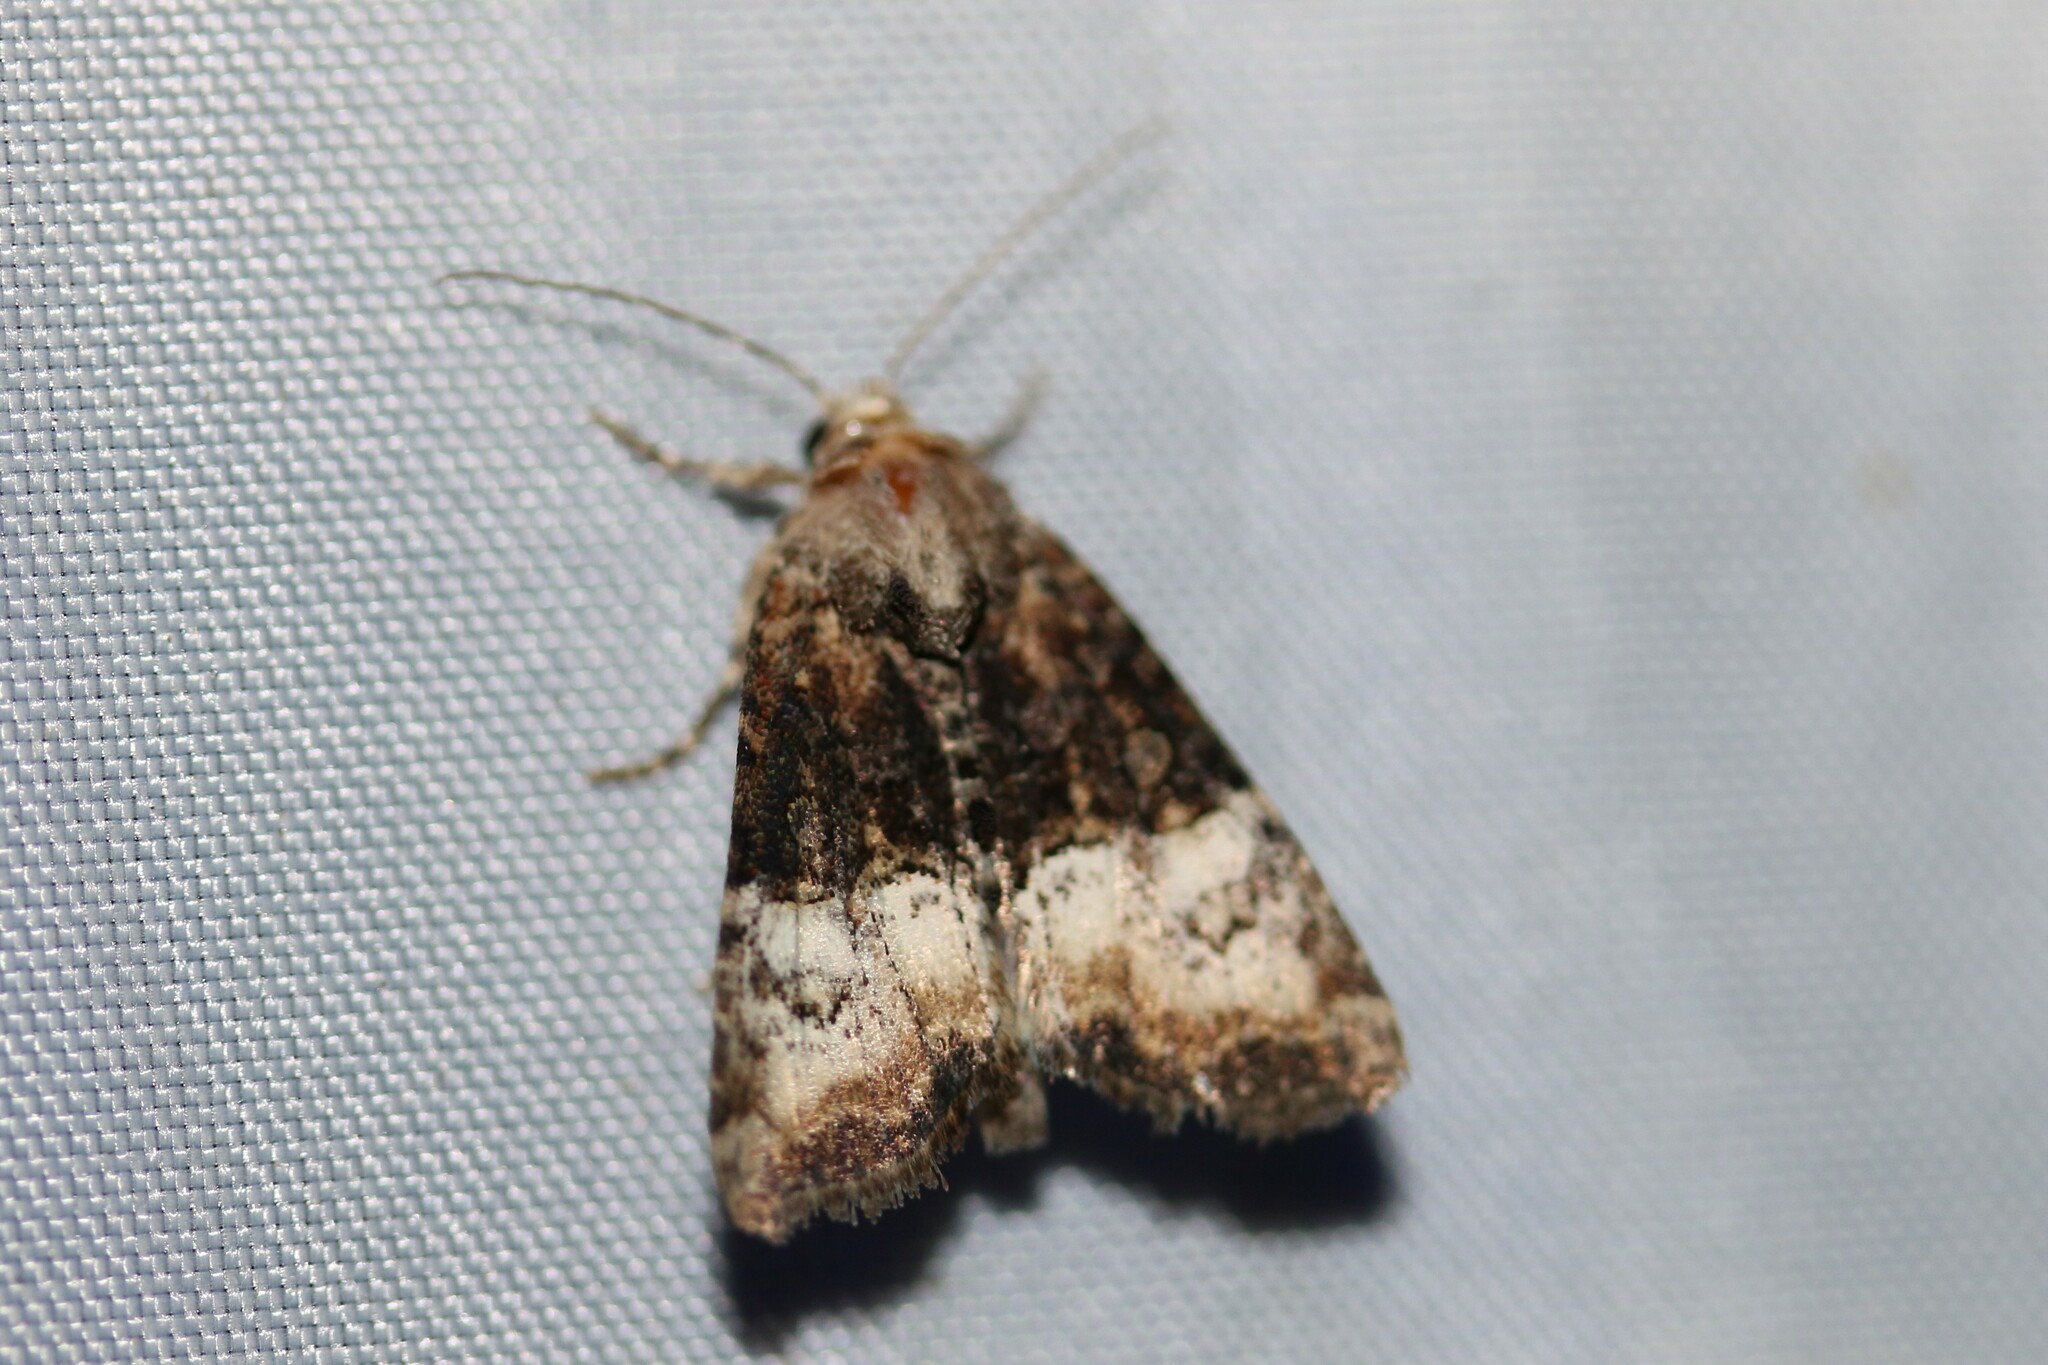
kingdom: Animalia
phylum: Arthropoda
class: Insecta
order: Lepidoptera
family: Noctuidae
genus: Mesoligia
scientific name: Mesoligia furuncula
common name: Cloaked minor
